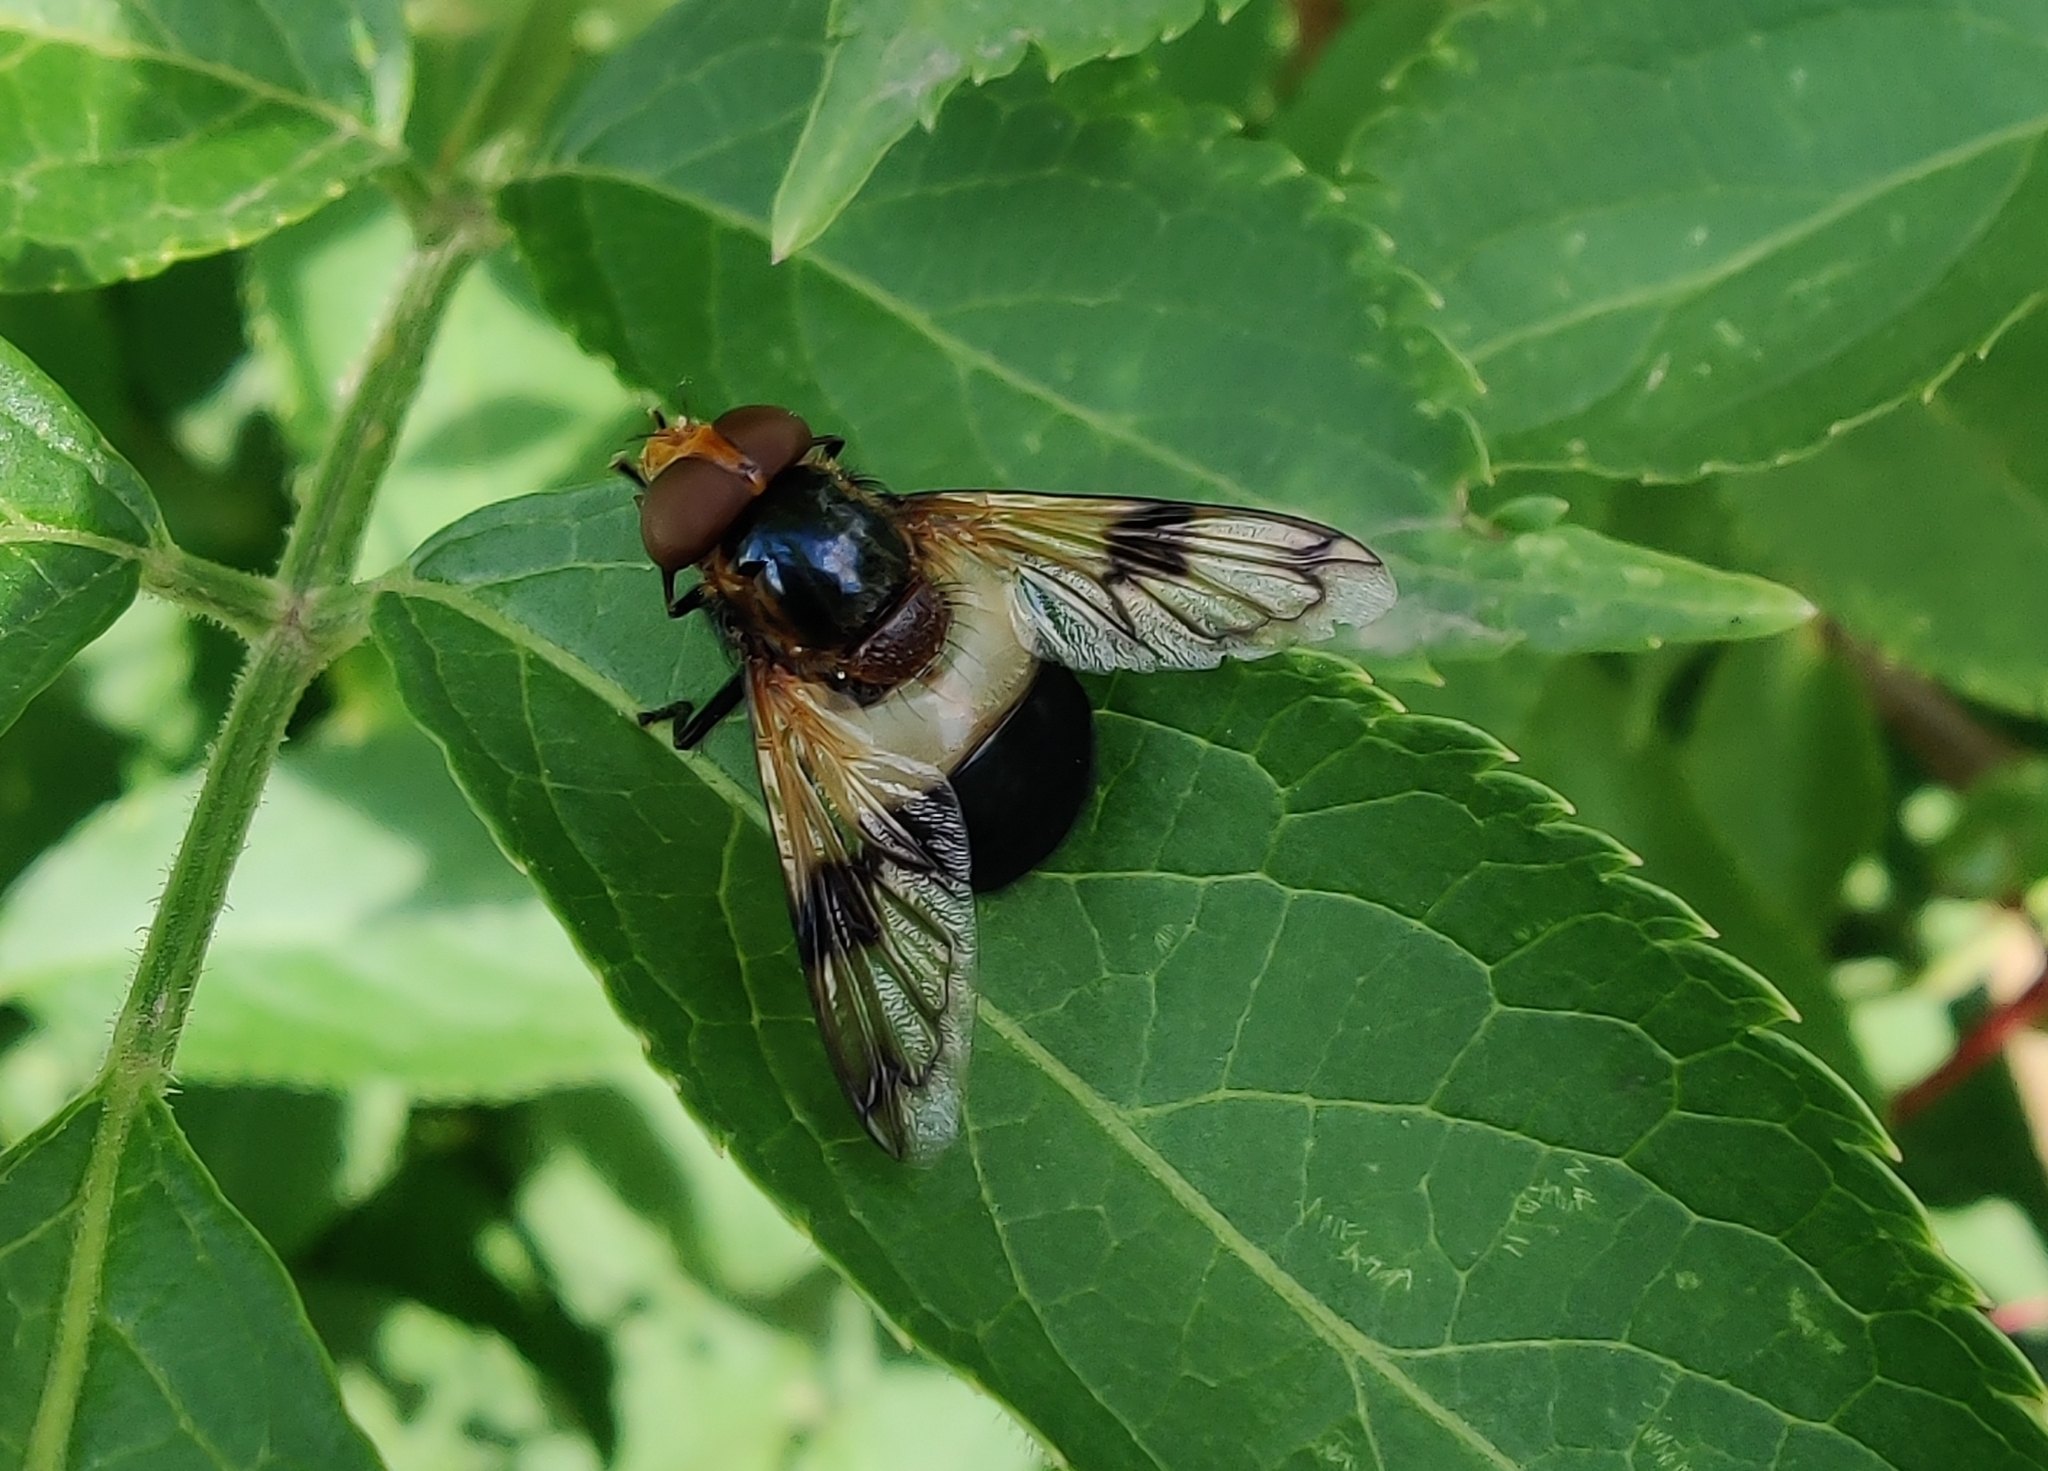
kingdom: Animalia
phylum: Arthropoda
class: Insecta
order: Diptera
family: Syrphidae
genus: Volucella
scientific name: Volucella pellucens
